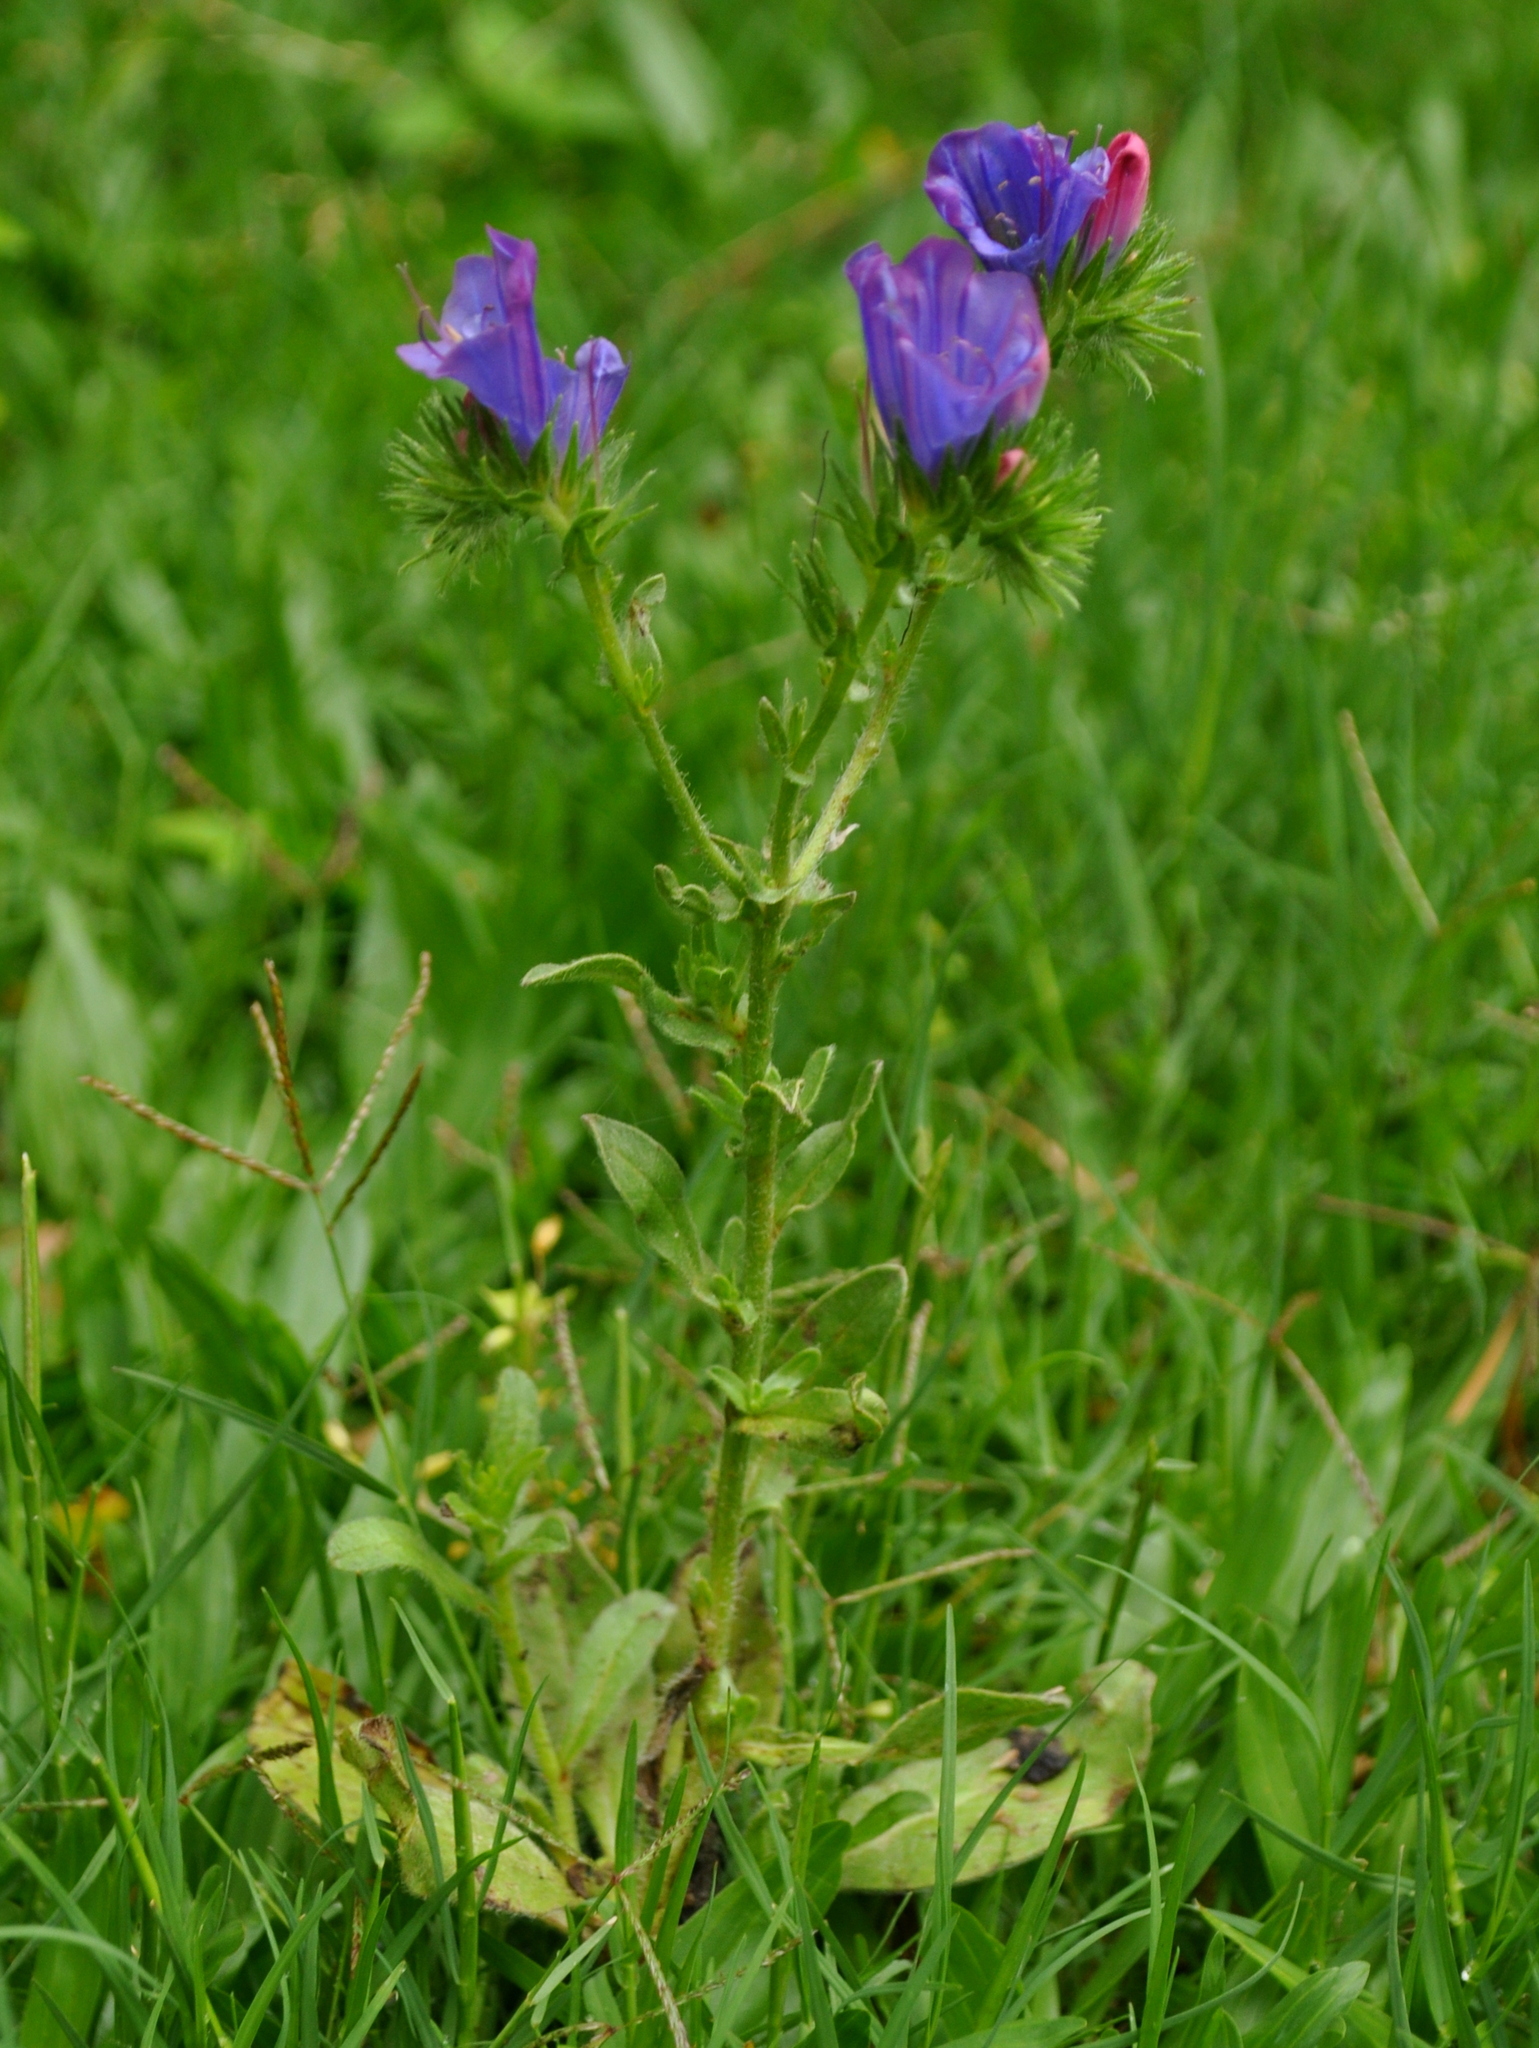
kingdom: Plantae
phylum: Tracheophyta
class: Magnoliopsida
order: Boraginales
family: Boraginaceae
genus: Echium
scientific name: Echium plantagineum
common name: Purple viper's-bugloss
